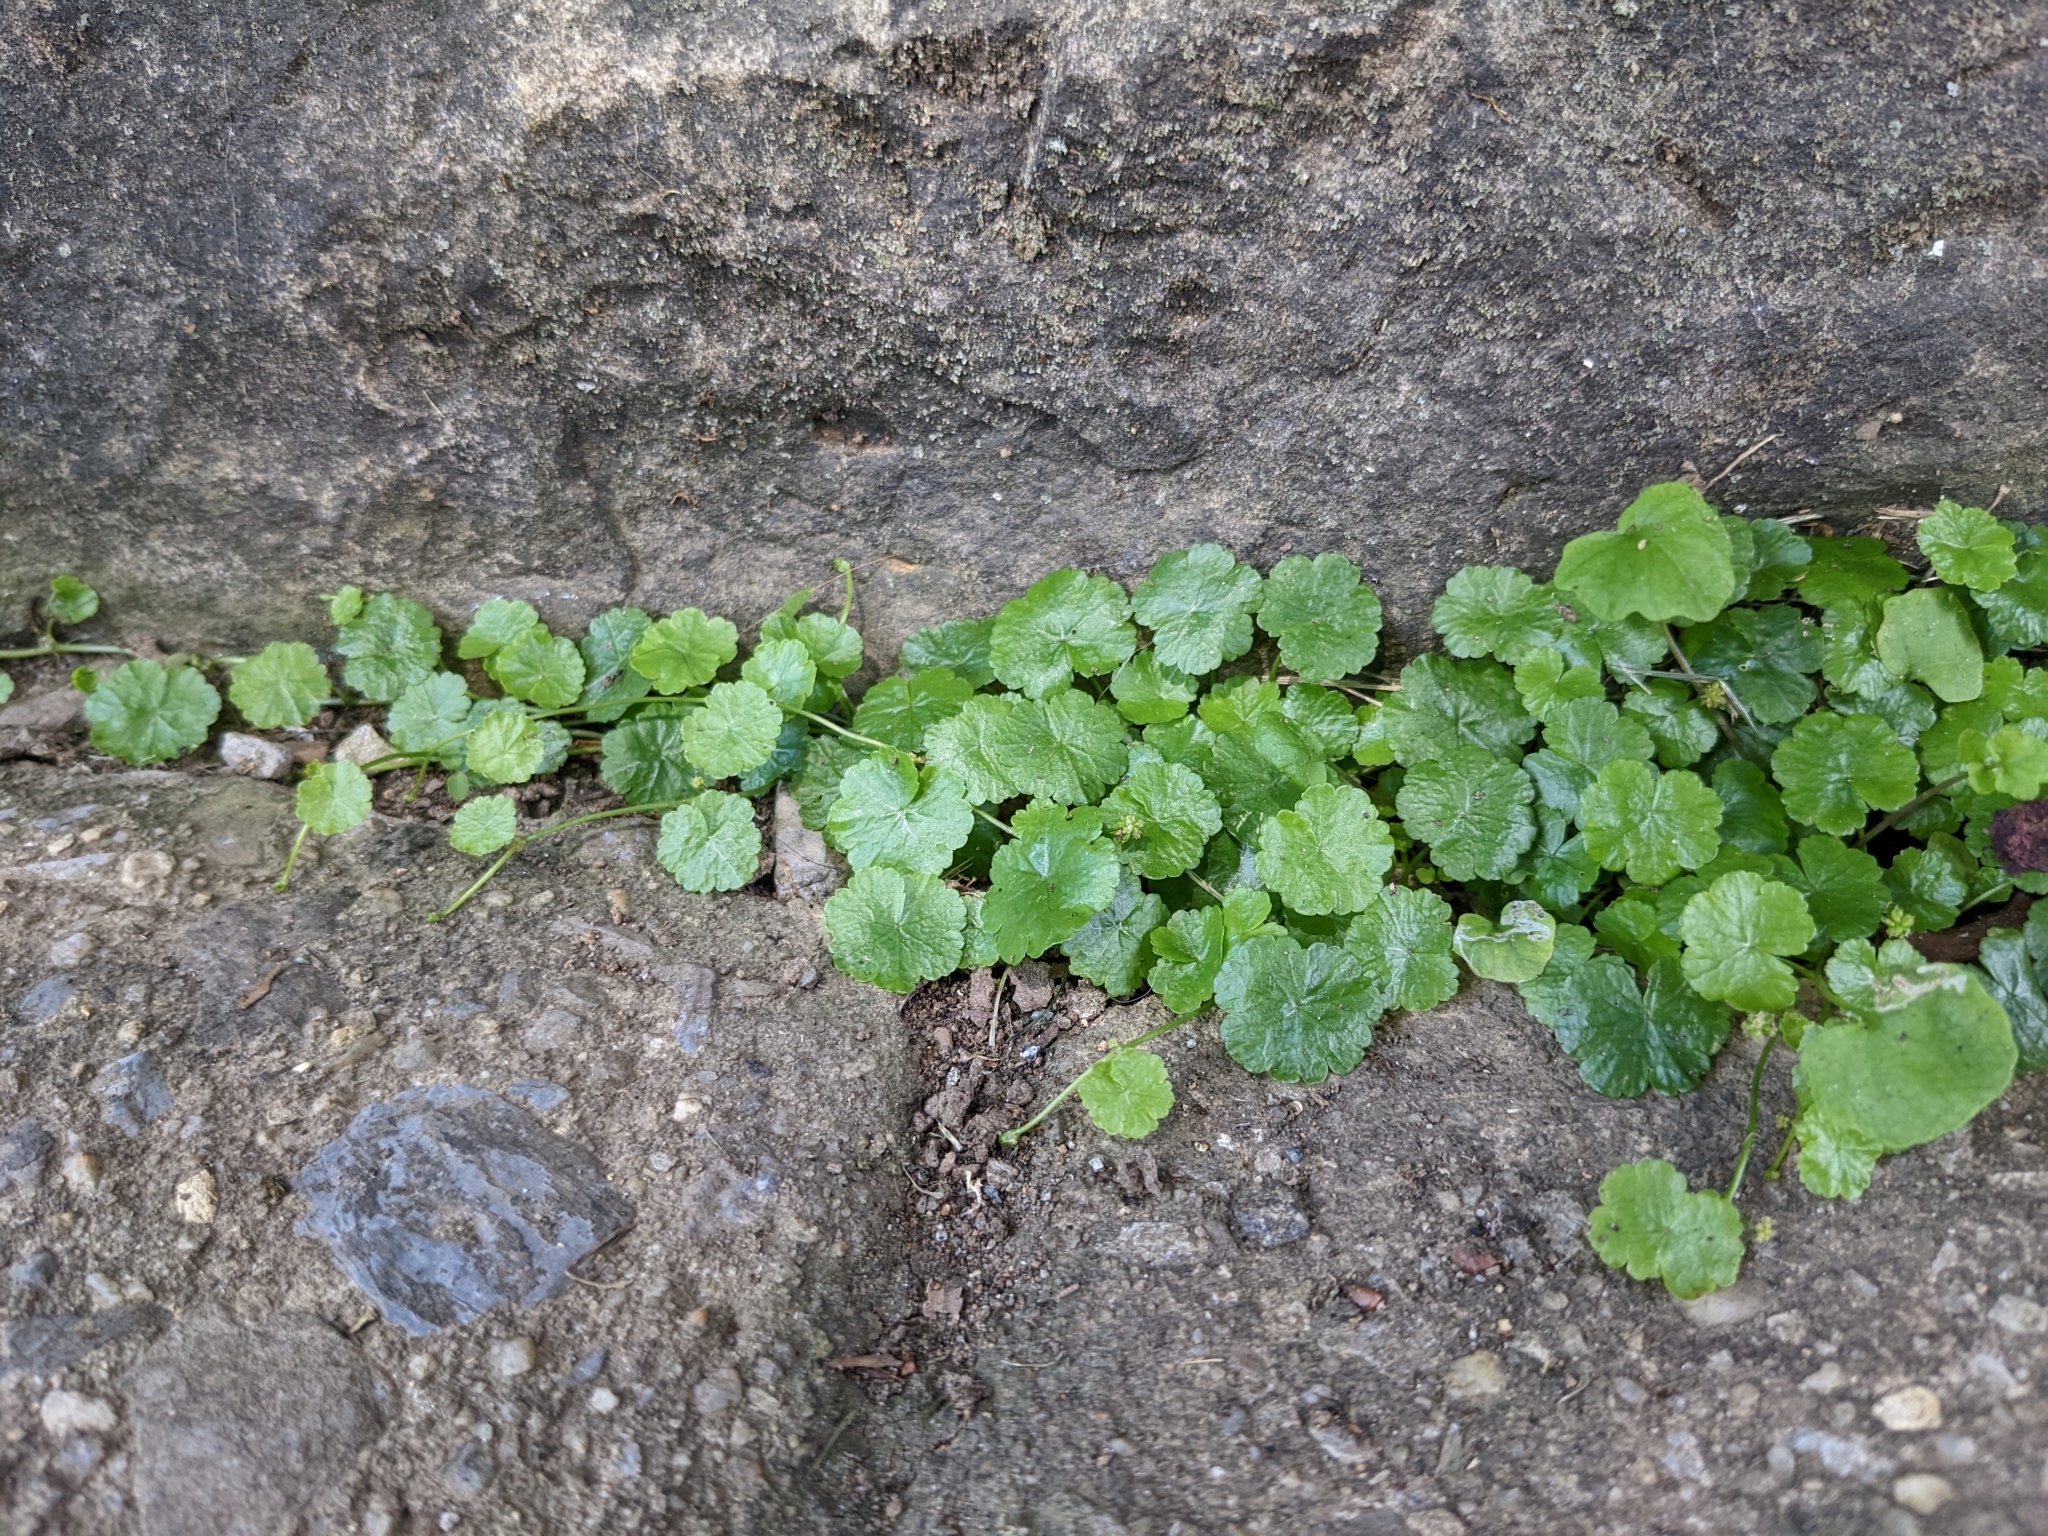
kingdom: Plantae
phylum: Tracheophyta
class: Magnoliopsida
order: Apiales
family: Araliaceae
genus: Hydrocotyle
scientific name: Hydrocotyle sibthorpioides
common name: Lawn marshpennywort
